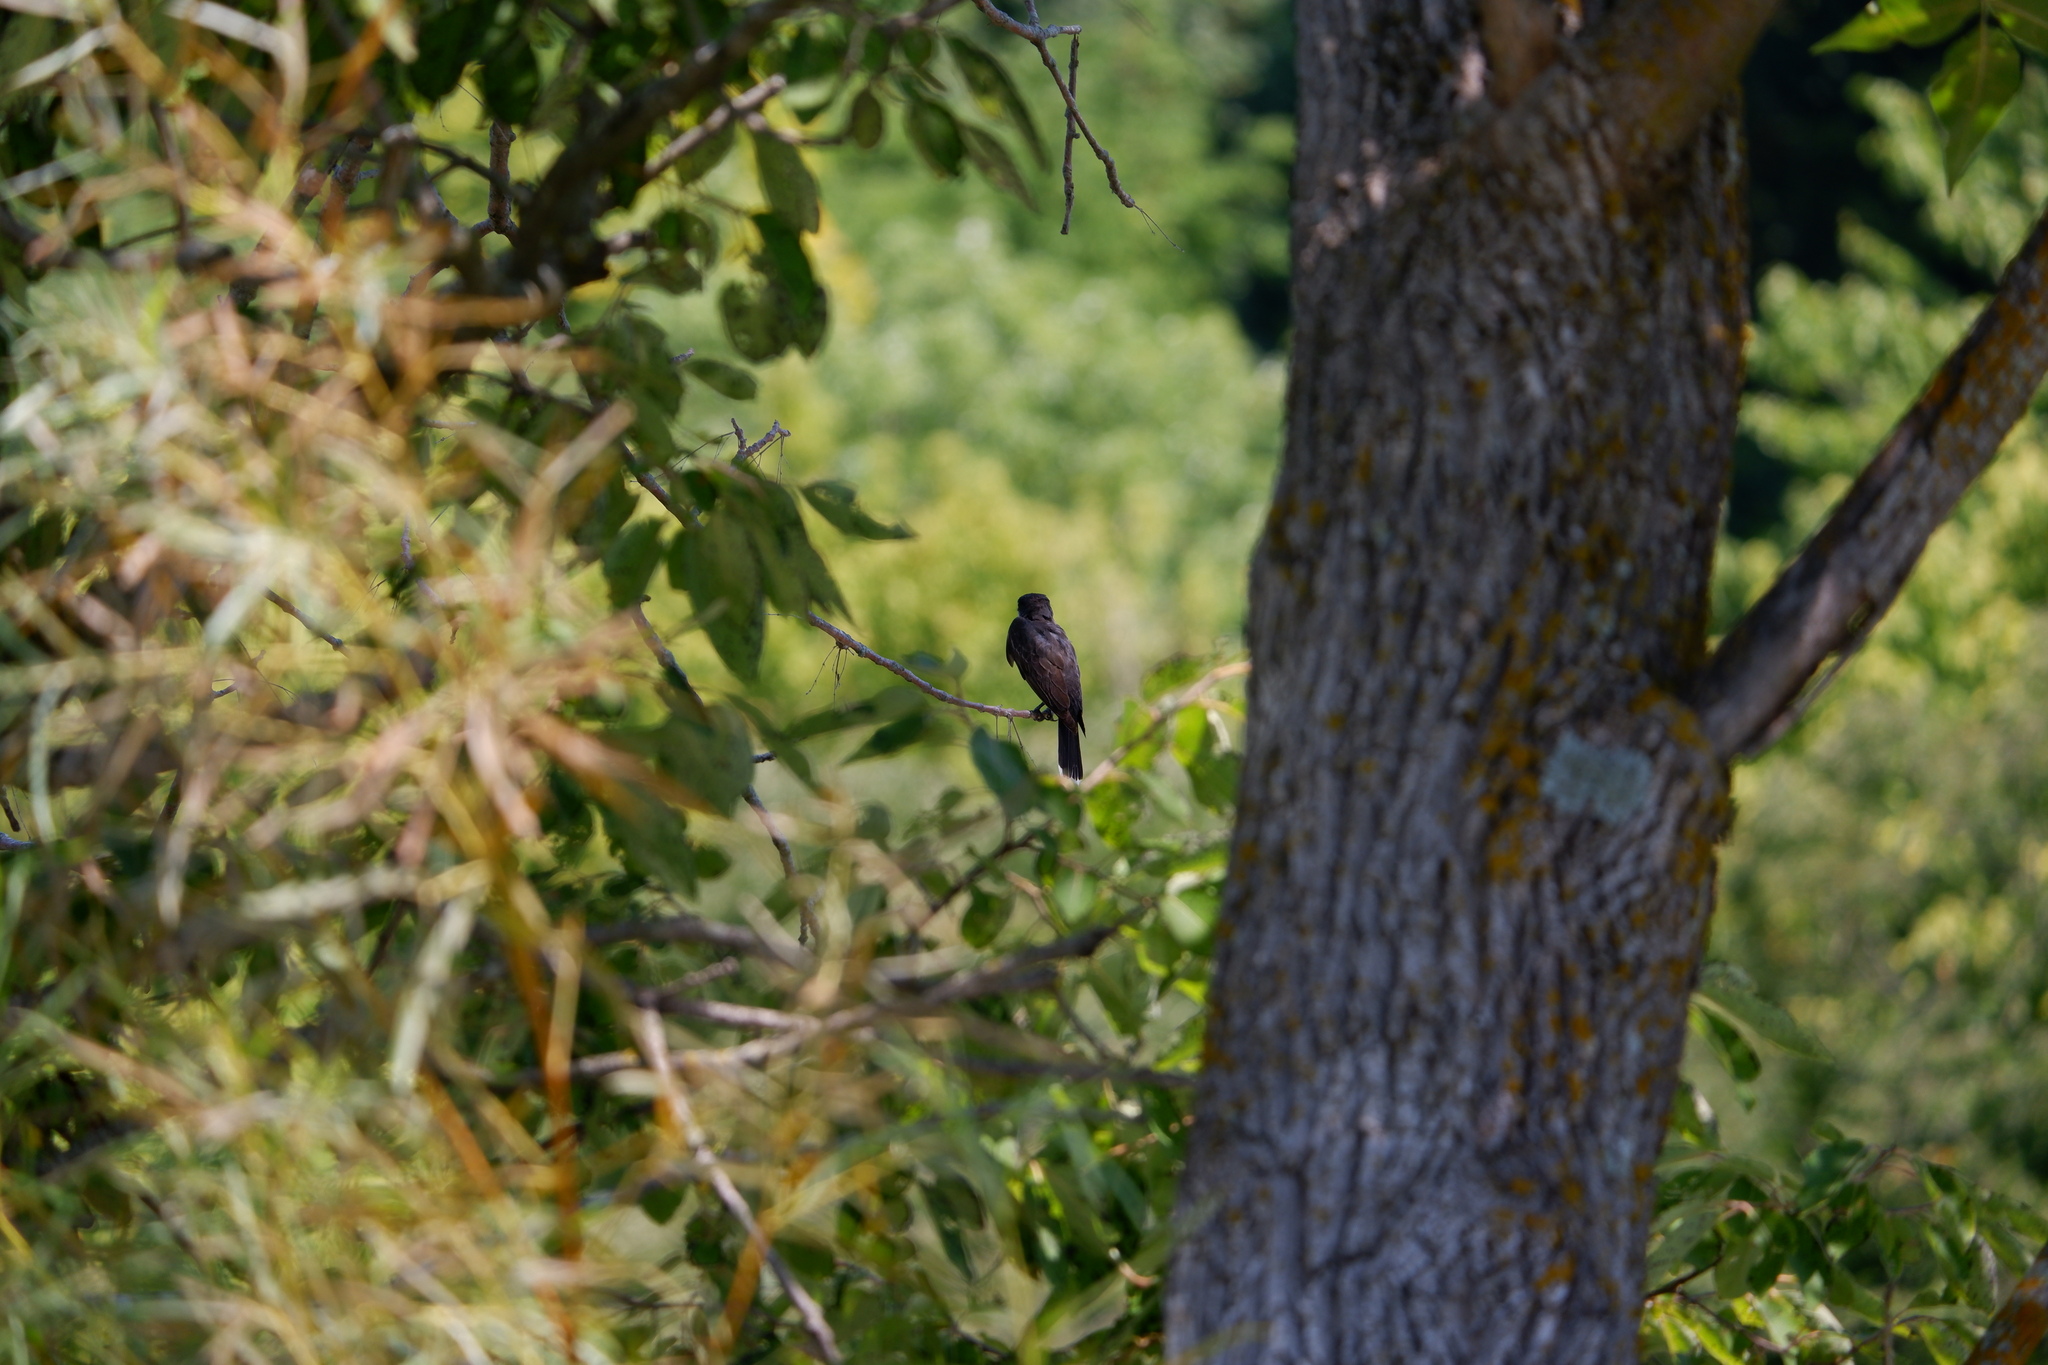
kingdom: Animalia
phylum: Chordata
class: Aves
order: Passeriformes
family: Tyrannidae
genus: Tyrannus
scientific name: Tyrannus tyrannus
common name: Eastern kingbird
